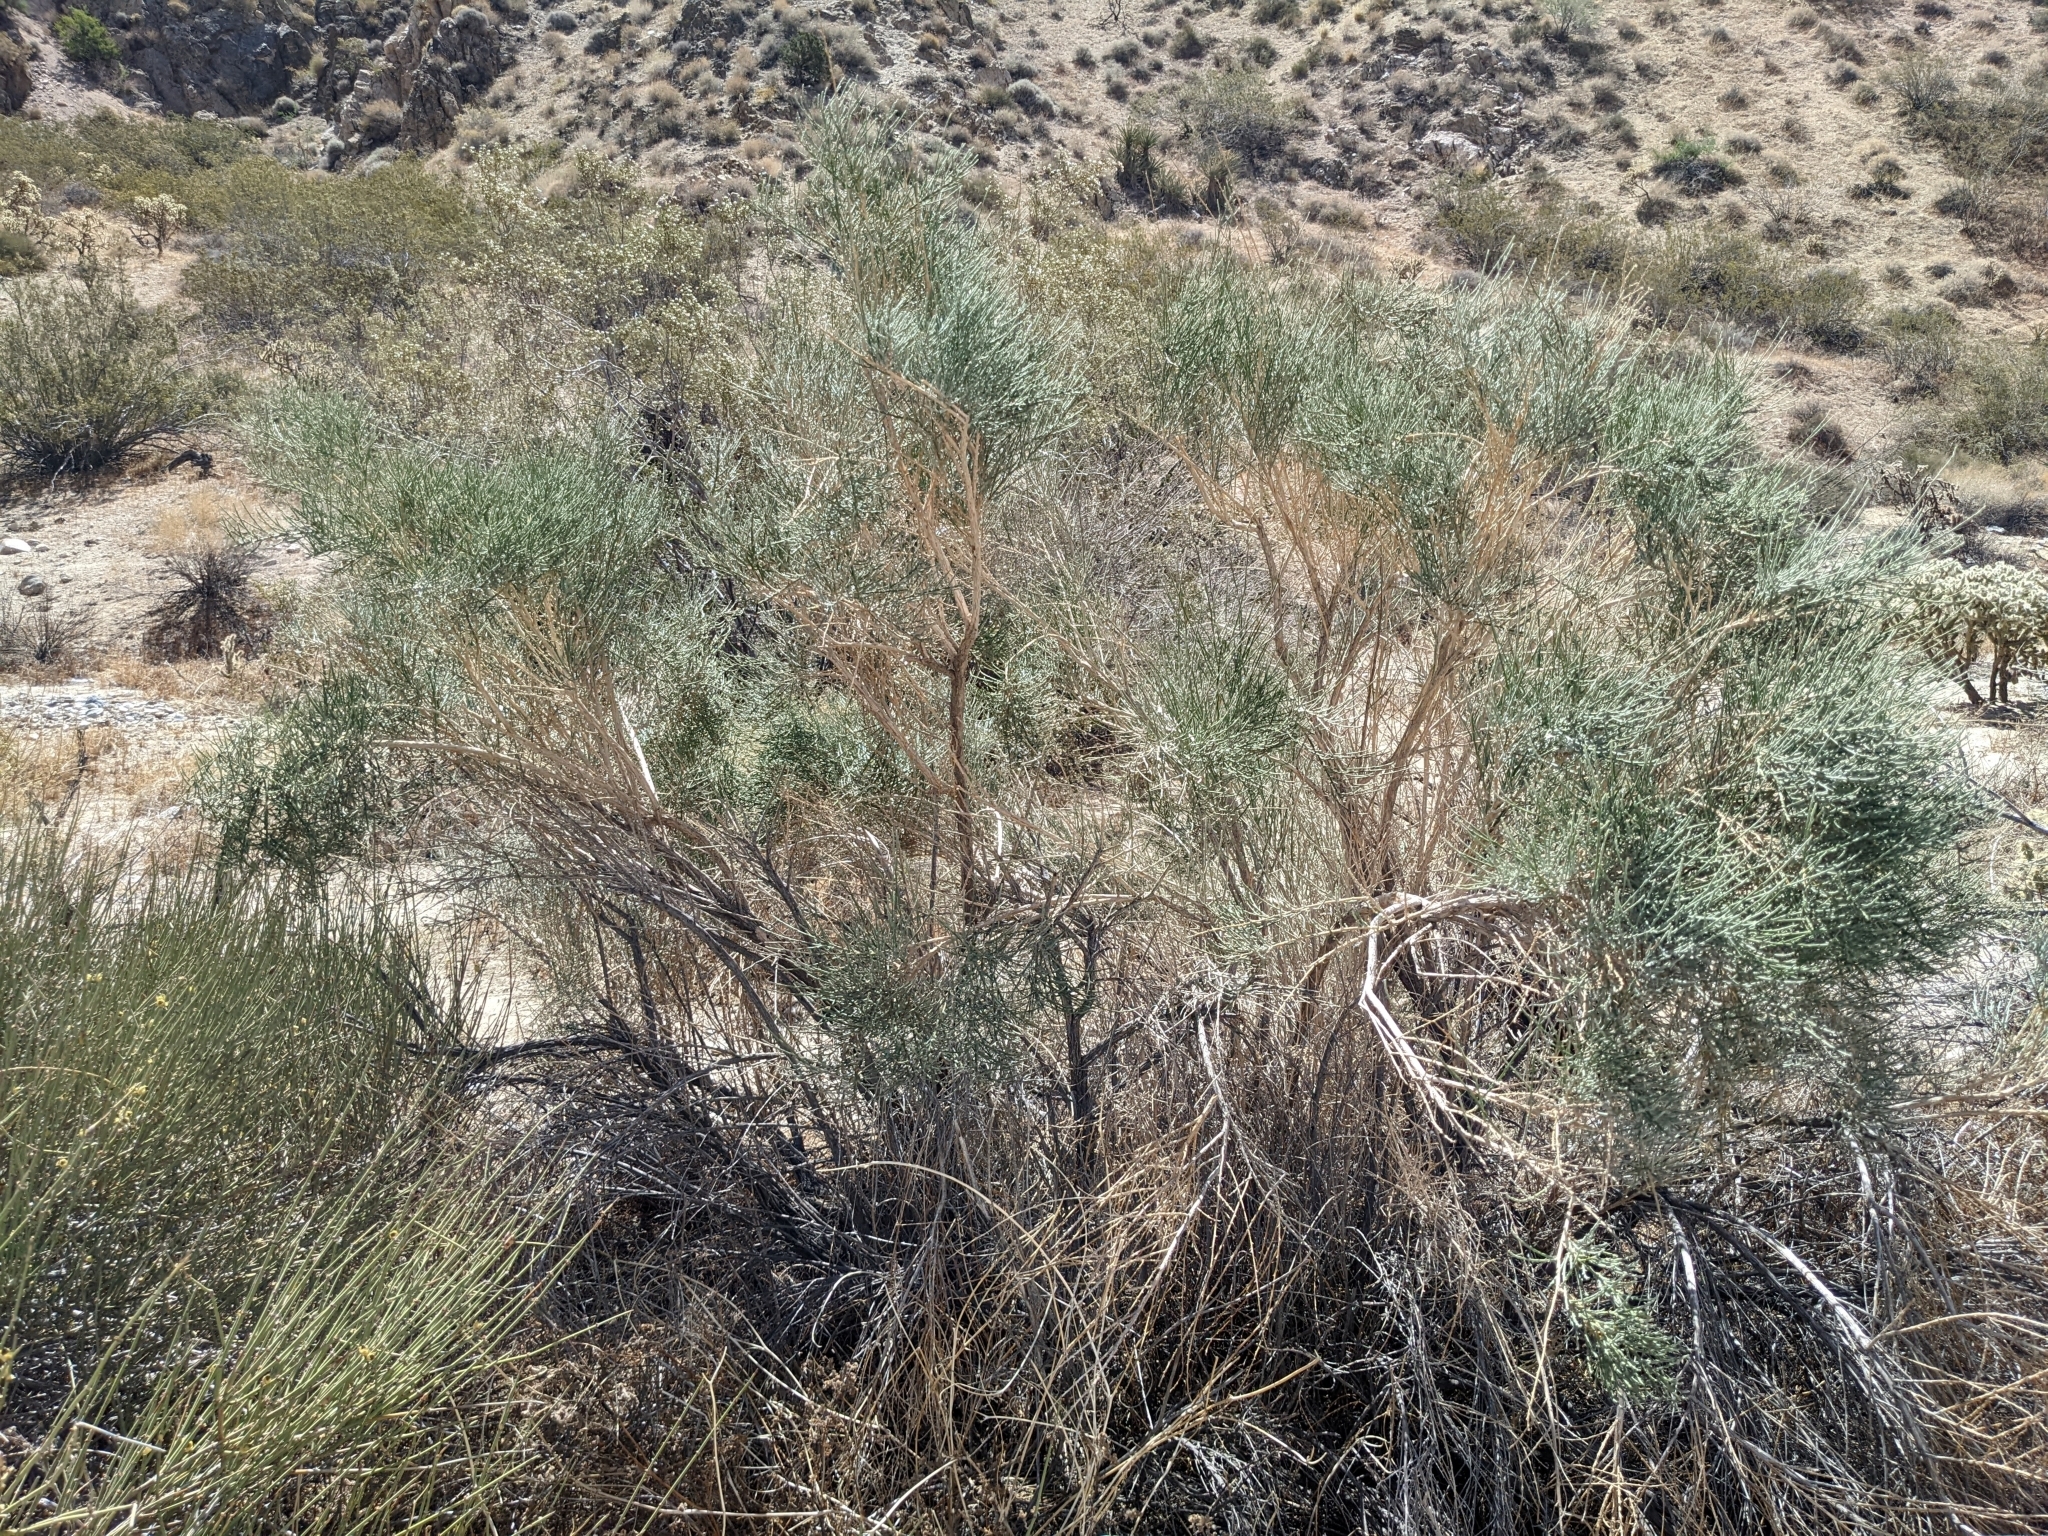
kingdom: Plantae
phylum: Tracheophyta
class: Magnoliopsida
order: Asterales
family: Asteraceae
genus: Lepidospartum
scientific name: Lepidospartum squamatum
